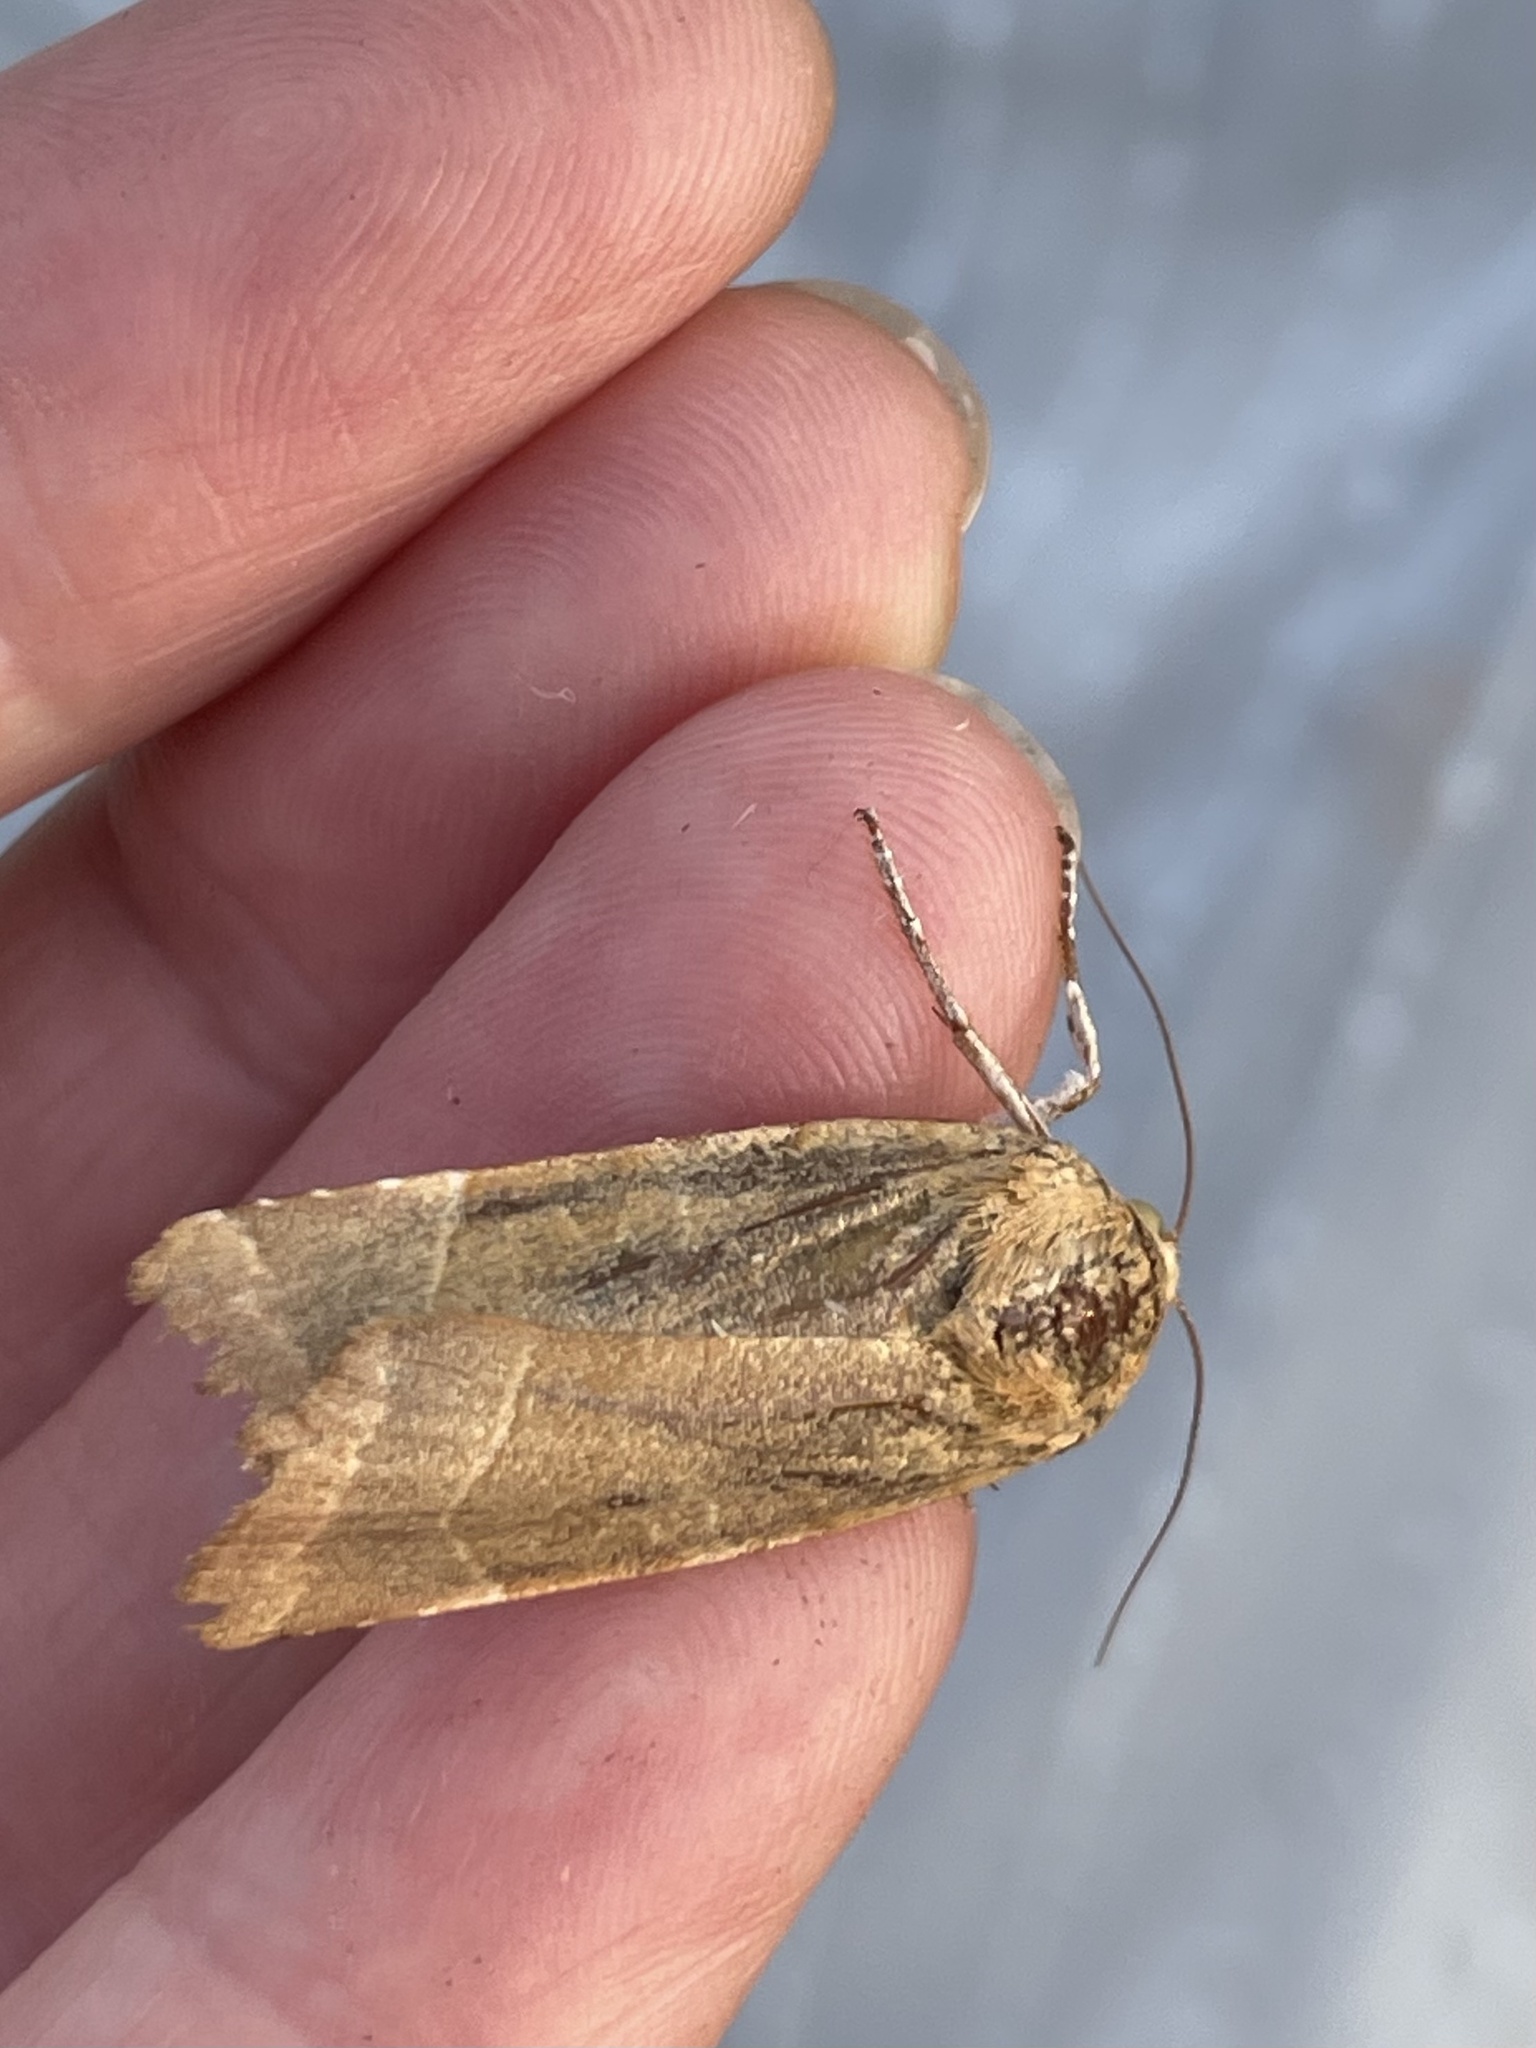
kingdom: Animalia
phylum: Arthropoda
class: Insecta
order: Lepidoptera
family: Noctuidae
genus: Noctua
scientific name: Noctua fimbriata
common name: Broad-bordered yellow underwing
